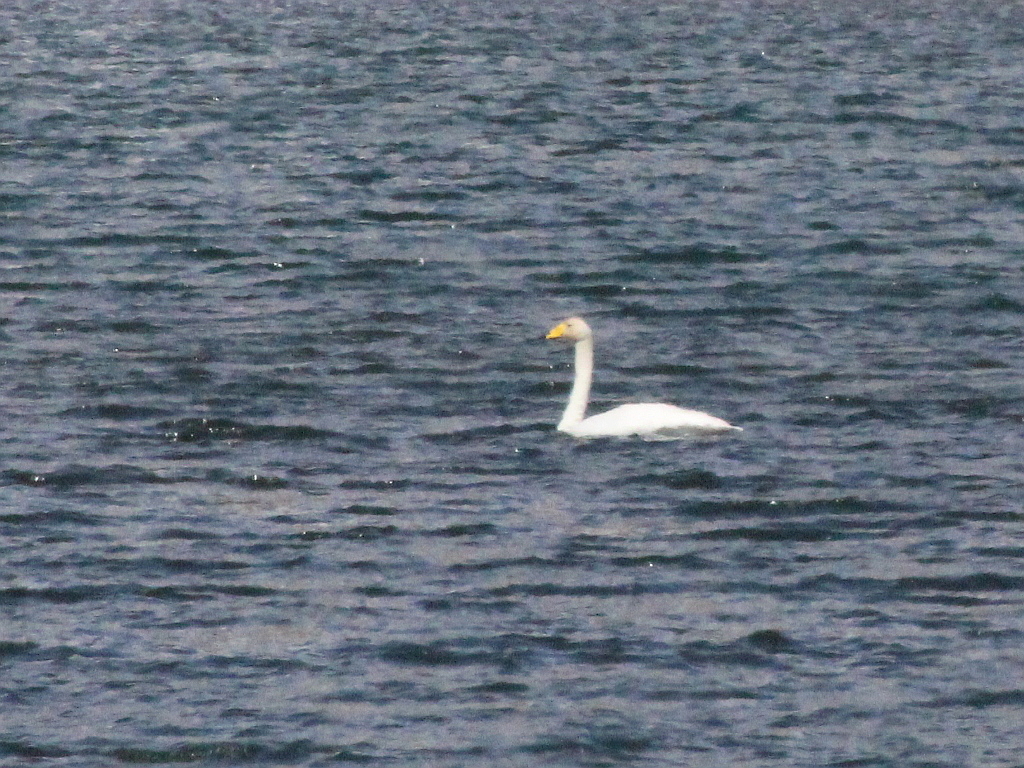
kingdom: Animalia
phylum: Chordata
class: Aves
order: Anseriformes
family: Anatidae
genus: Cygnus
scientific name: Cygnus cygnus
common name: Whooper swan
